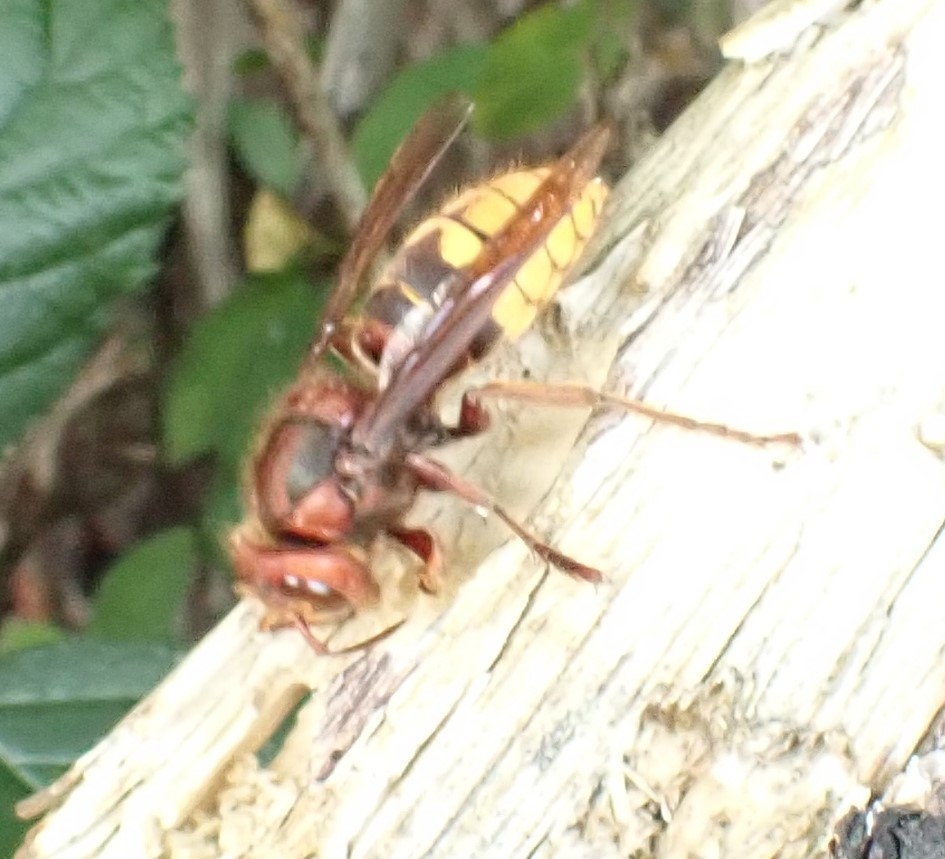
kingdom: Animalia
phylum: Arthropoda
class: Insecta
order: Hymenoptera
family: Vespidae
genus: Vespa
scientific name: Vespa crabro
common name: Hornet
